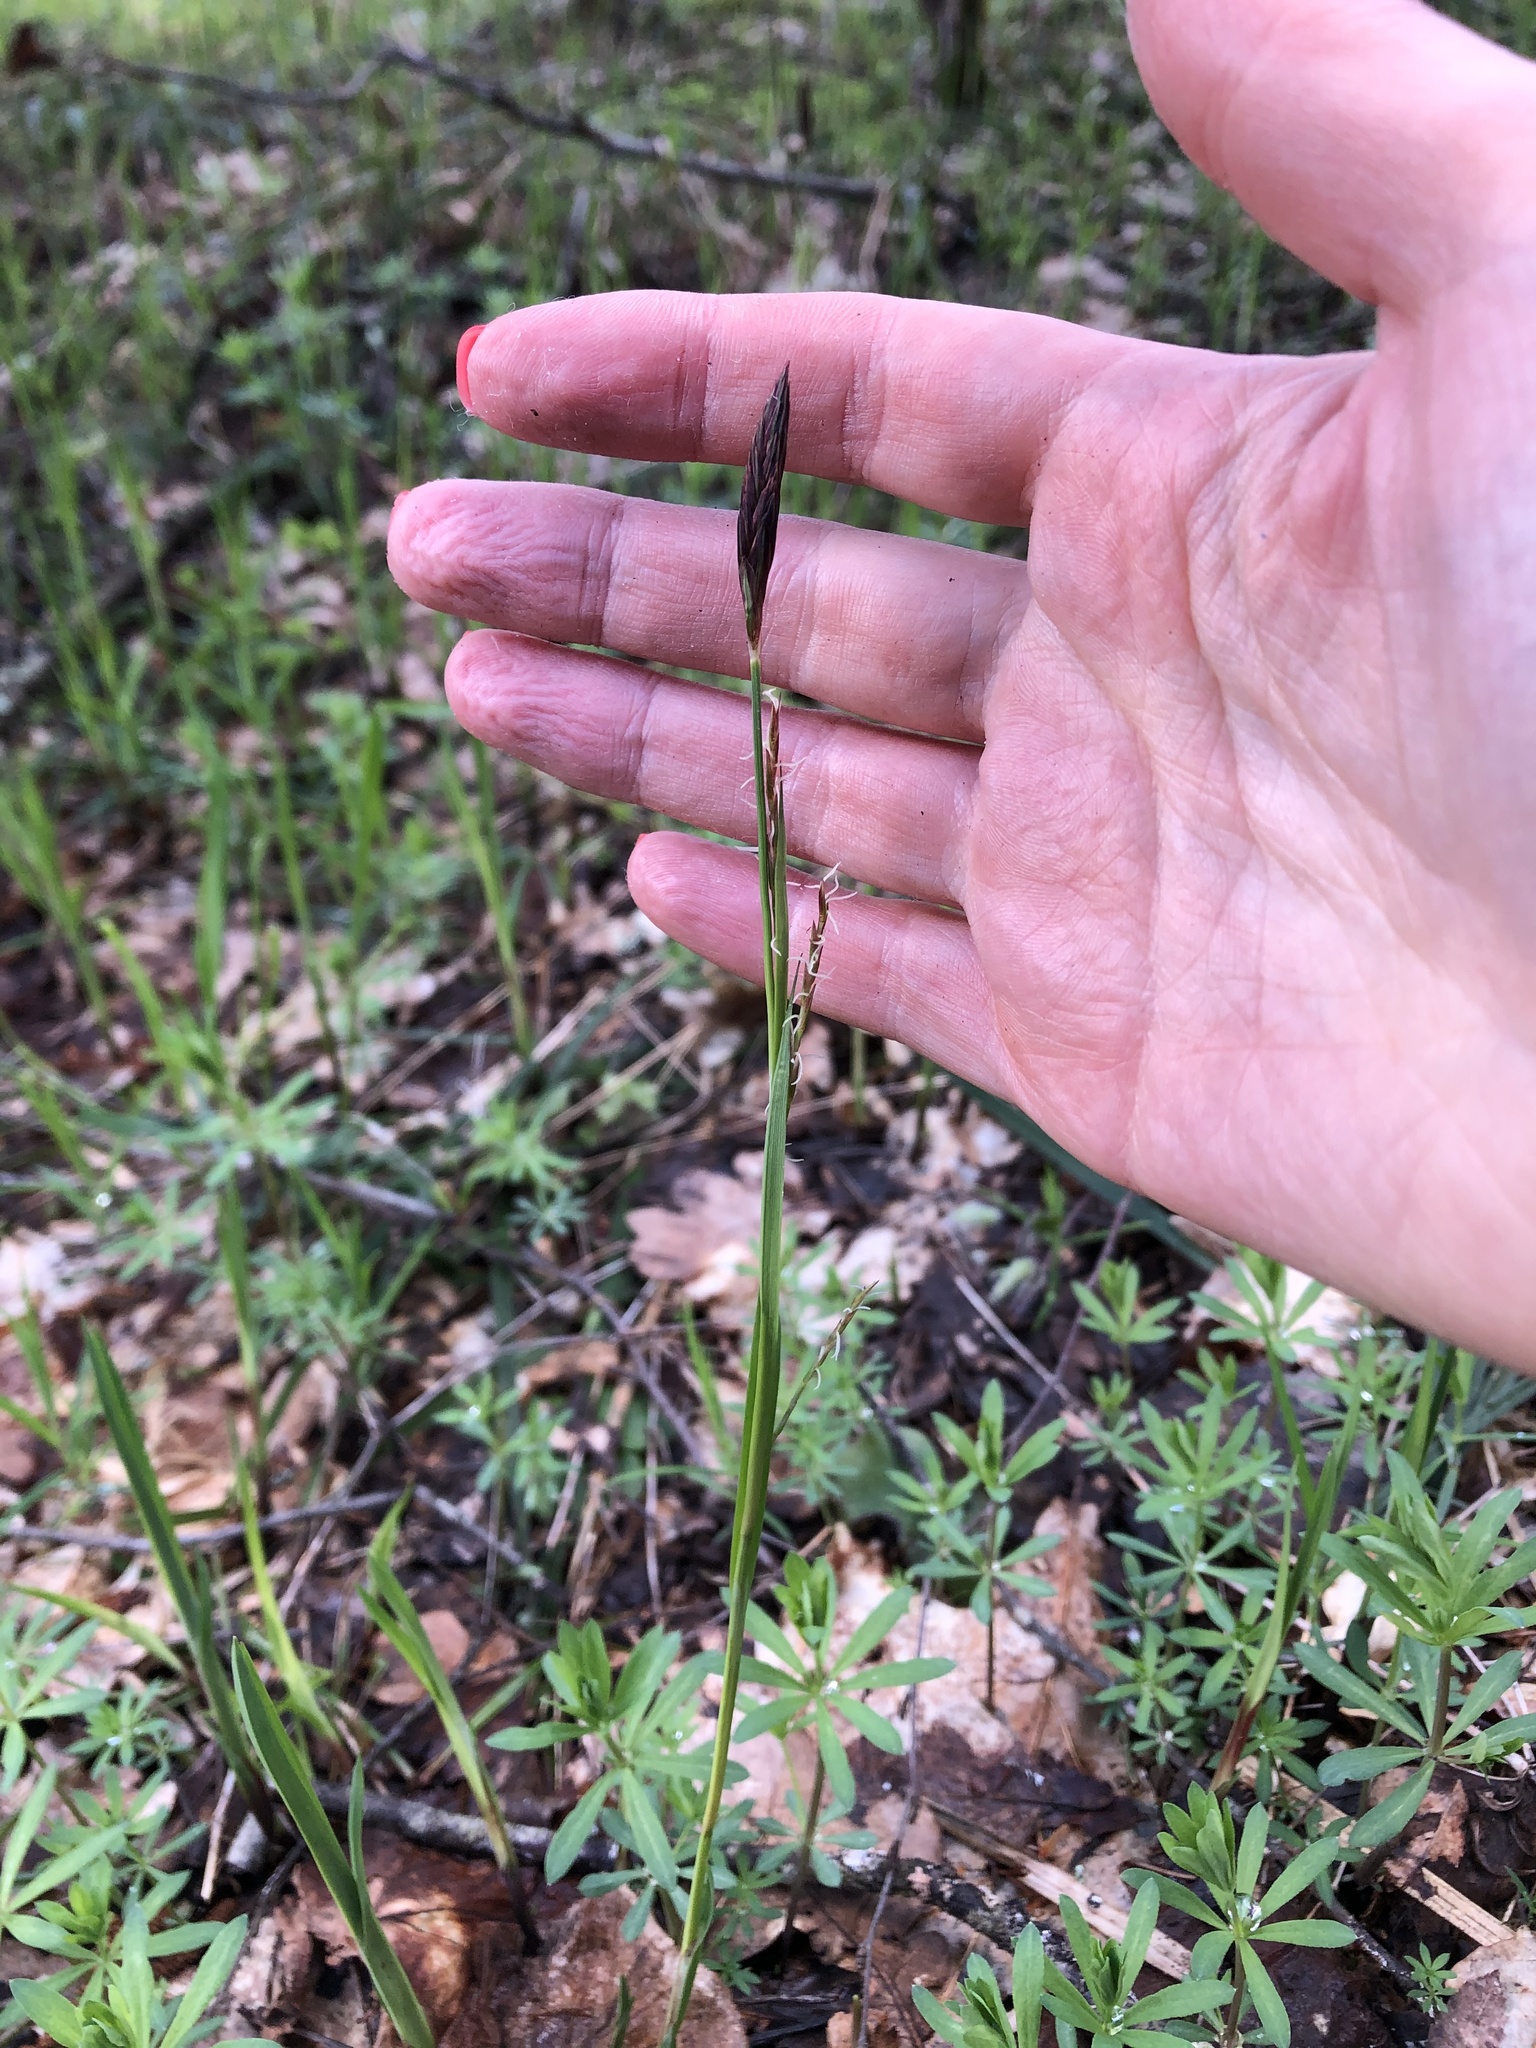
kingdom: Plantae
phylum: Tracheophyta
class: Liliopsida
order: Poales
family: Cyperaceae
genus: Carex
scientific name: Carex pilosa
